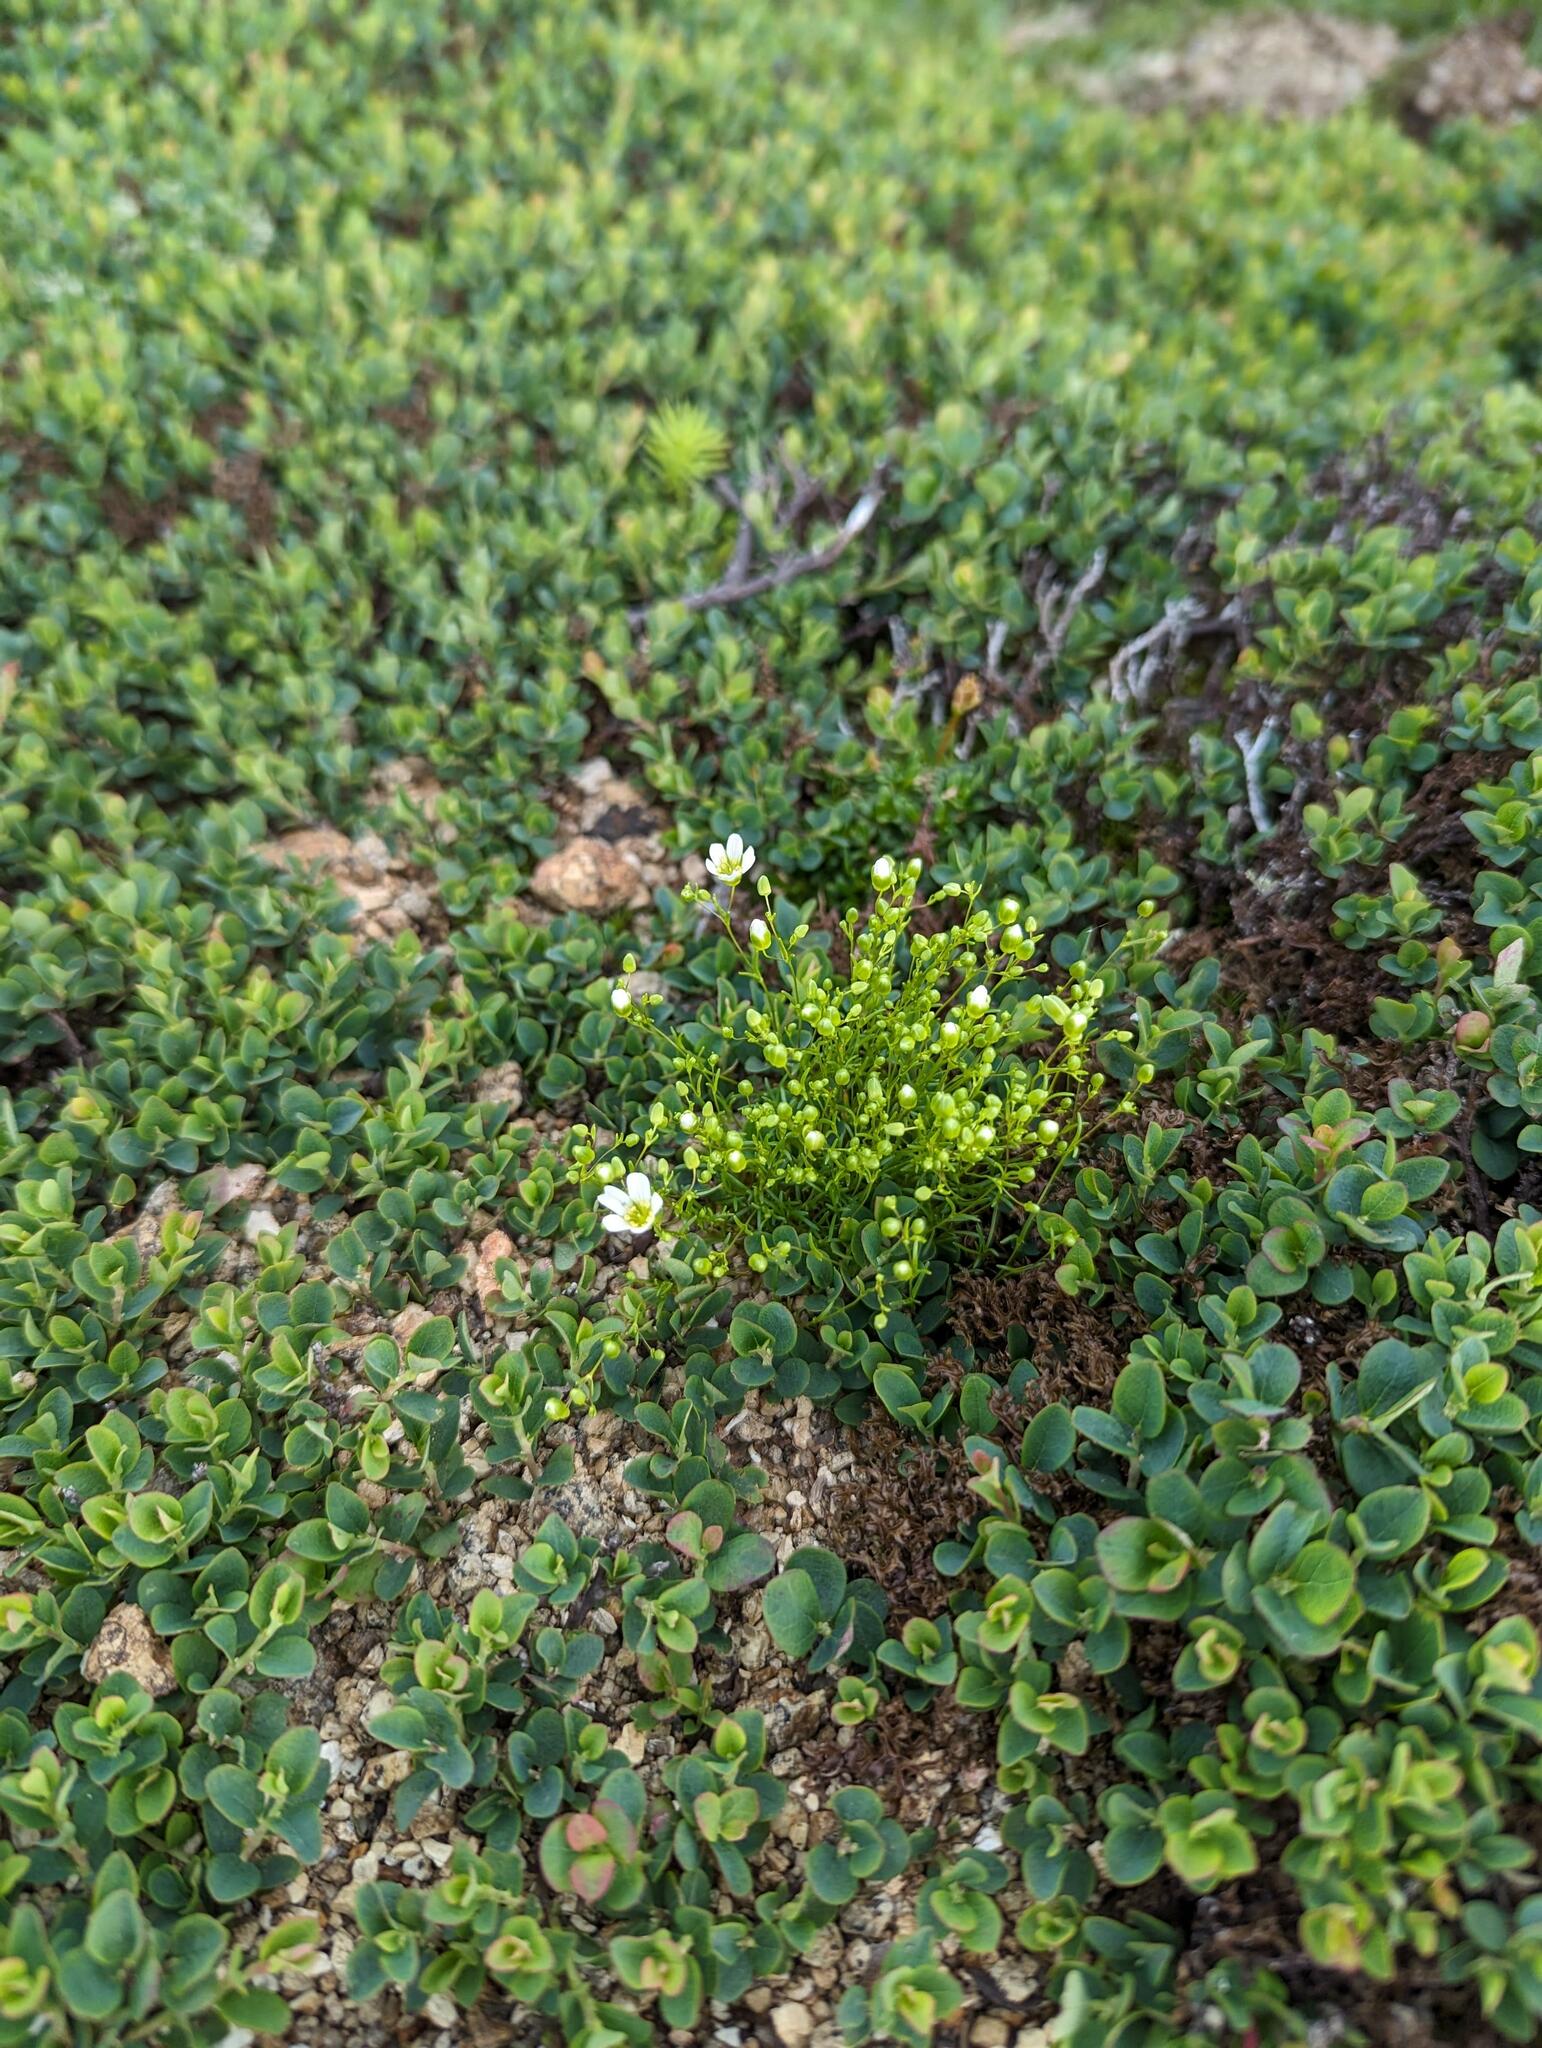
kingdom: Plantae
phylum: Tracheophyta
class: Magnoliopsida
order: Caryophyllales
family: Caryophyllaceae
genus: Geocarpon
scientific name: Geocarpon groenlandicum
